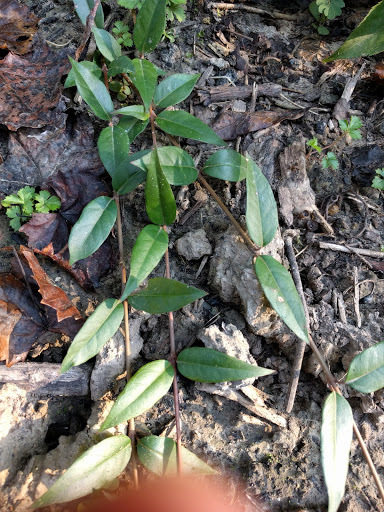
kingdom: Plantae
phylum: Tracheophyta
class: Magnoliopsida
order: Gentianales
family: Gelsemiaceae
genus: Gelsemium
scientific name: Gelsemium sempervirens
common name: Carolina-jasmine
